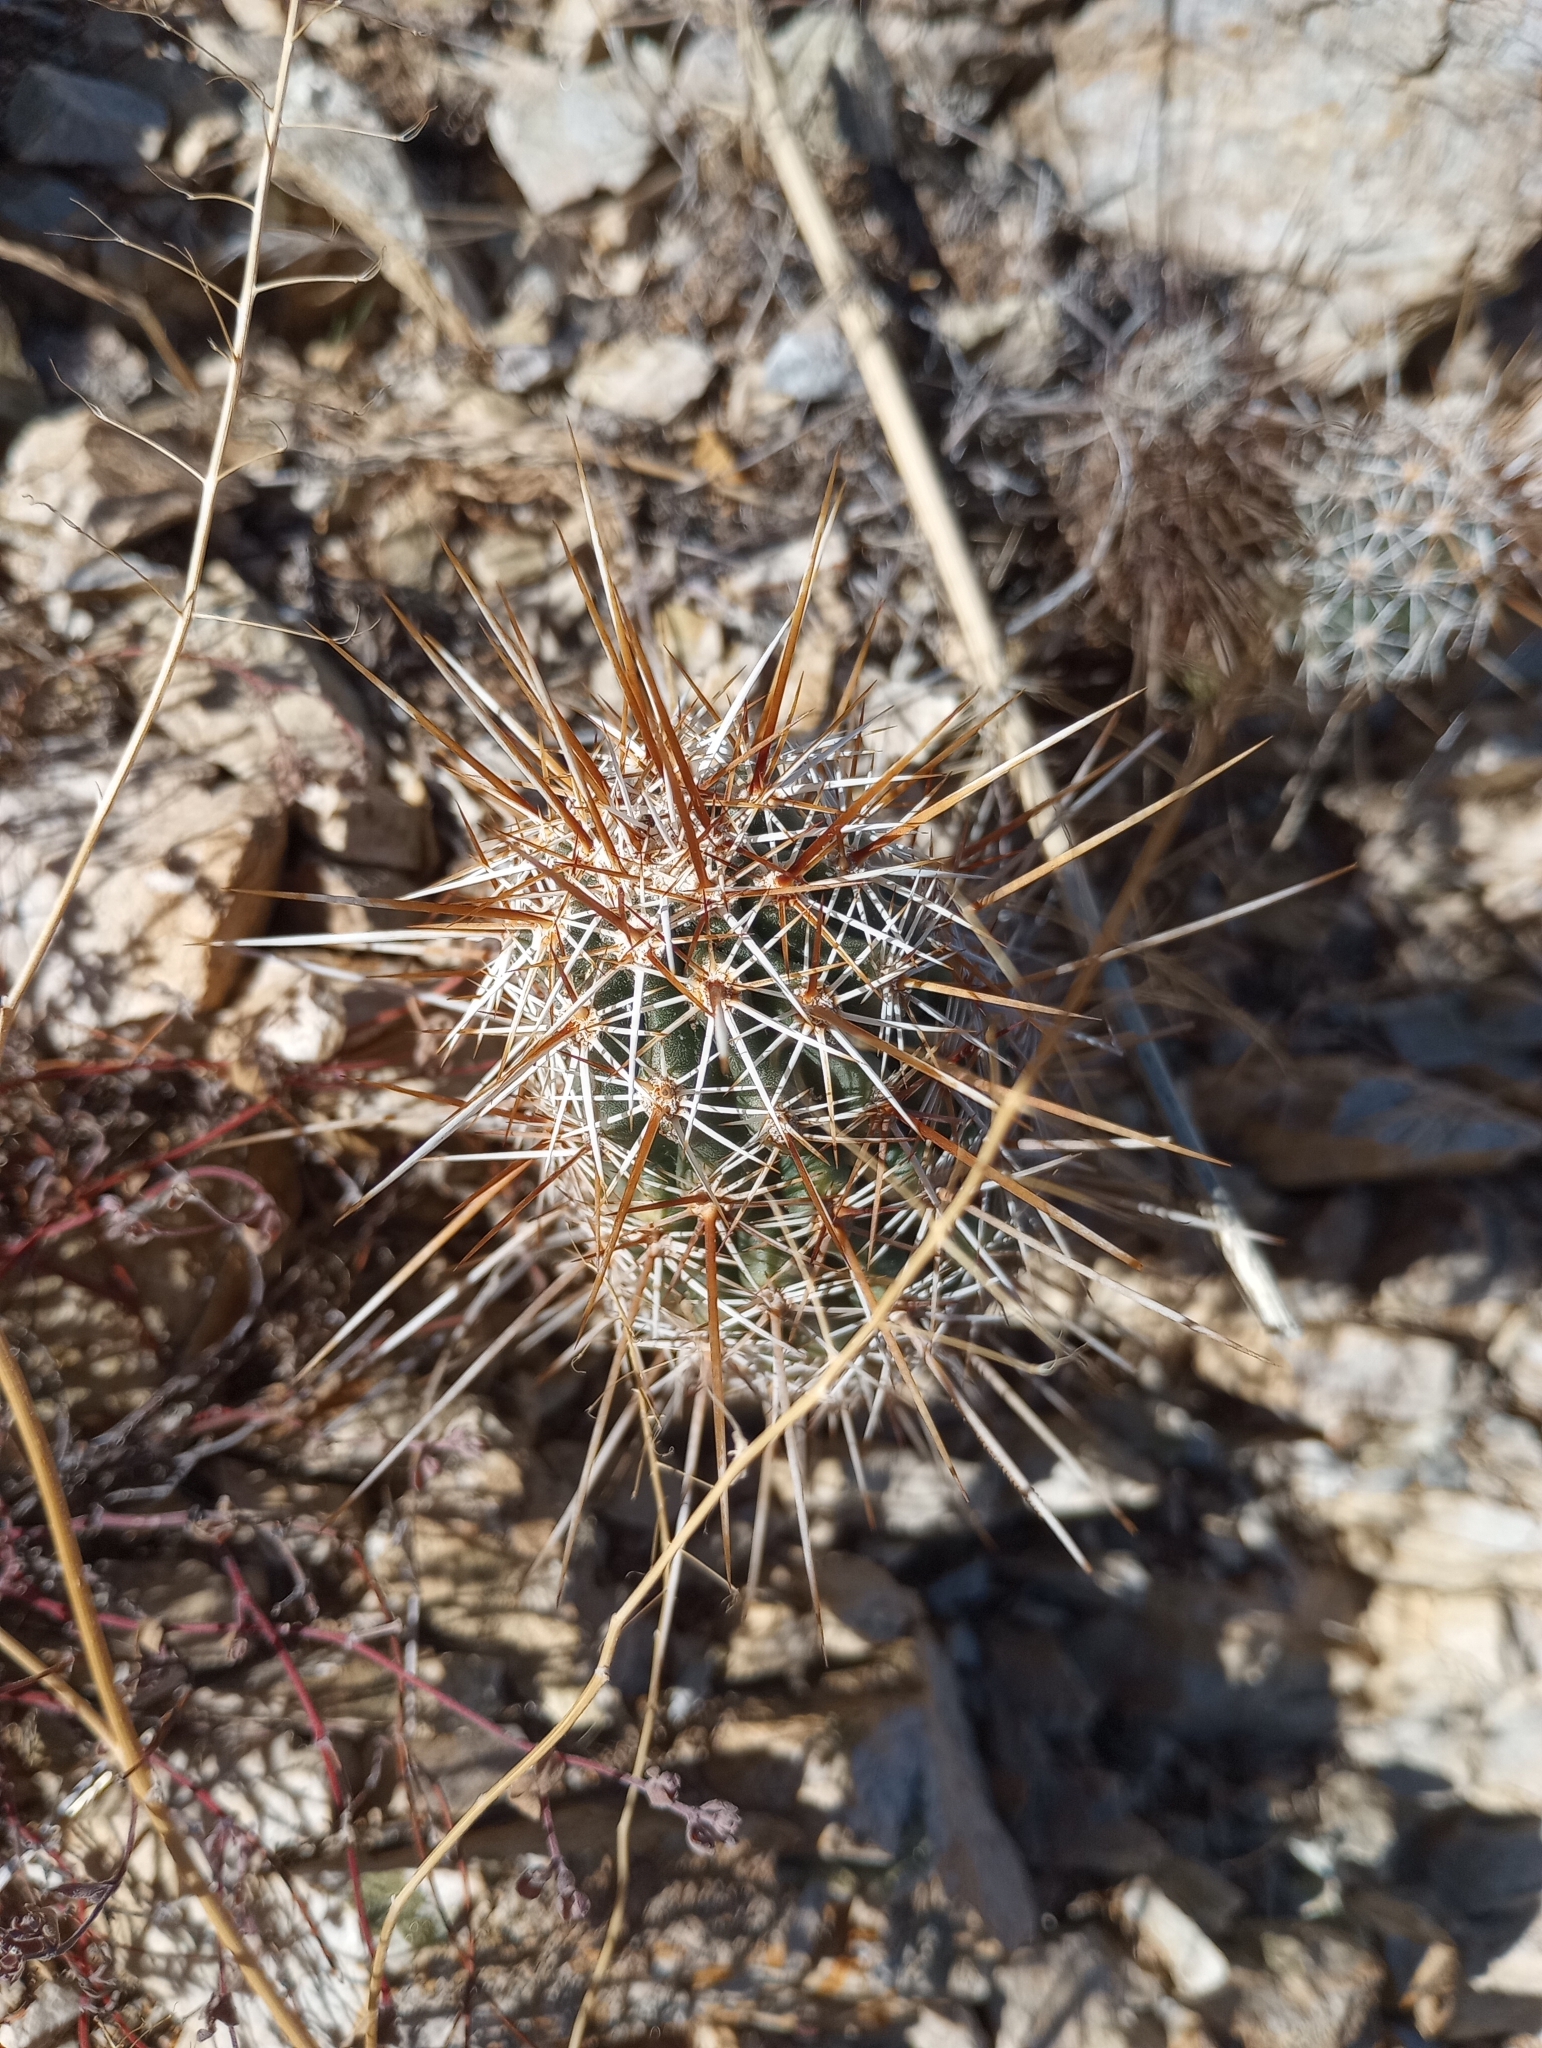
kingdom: Plantae
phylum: Tracheophyta
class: Magnoliopsida
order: Caryophyllales
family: Cactaceae
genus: Echinocereus
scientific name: Echinocereus engelmannii
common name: Engelmann's hedgehog cactus
